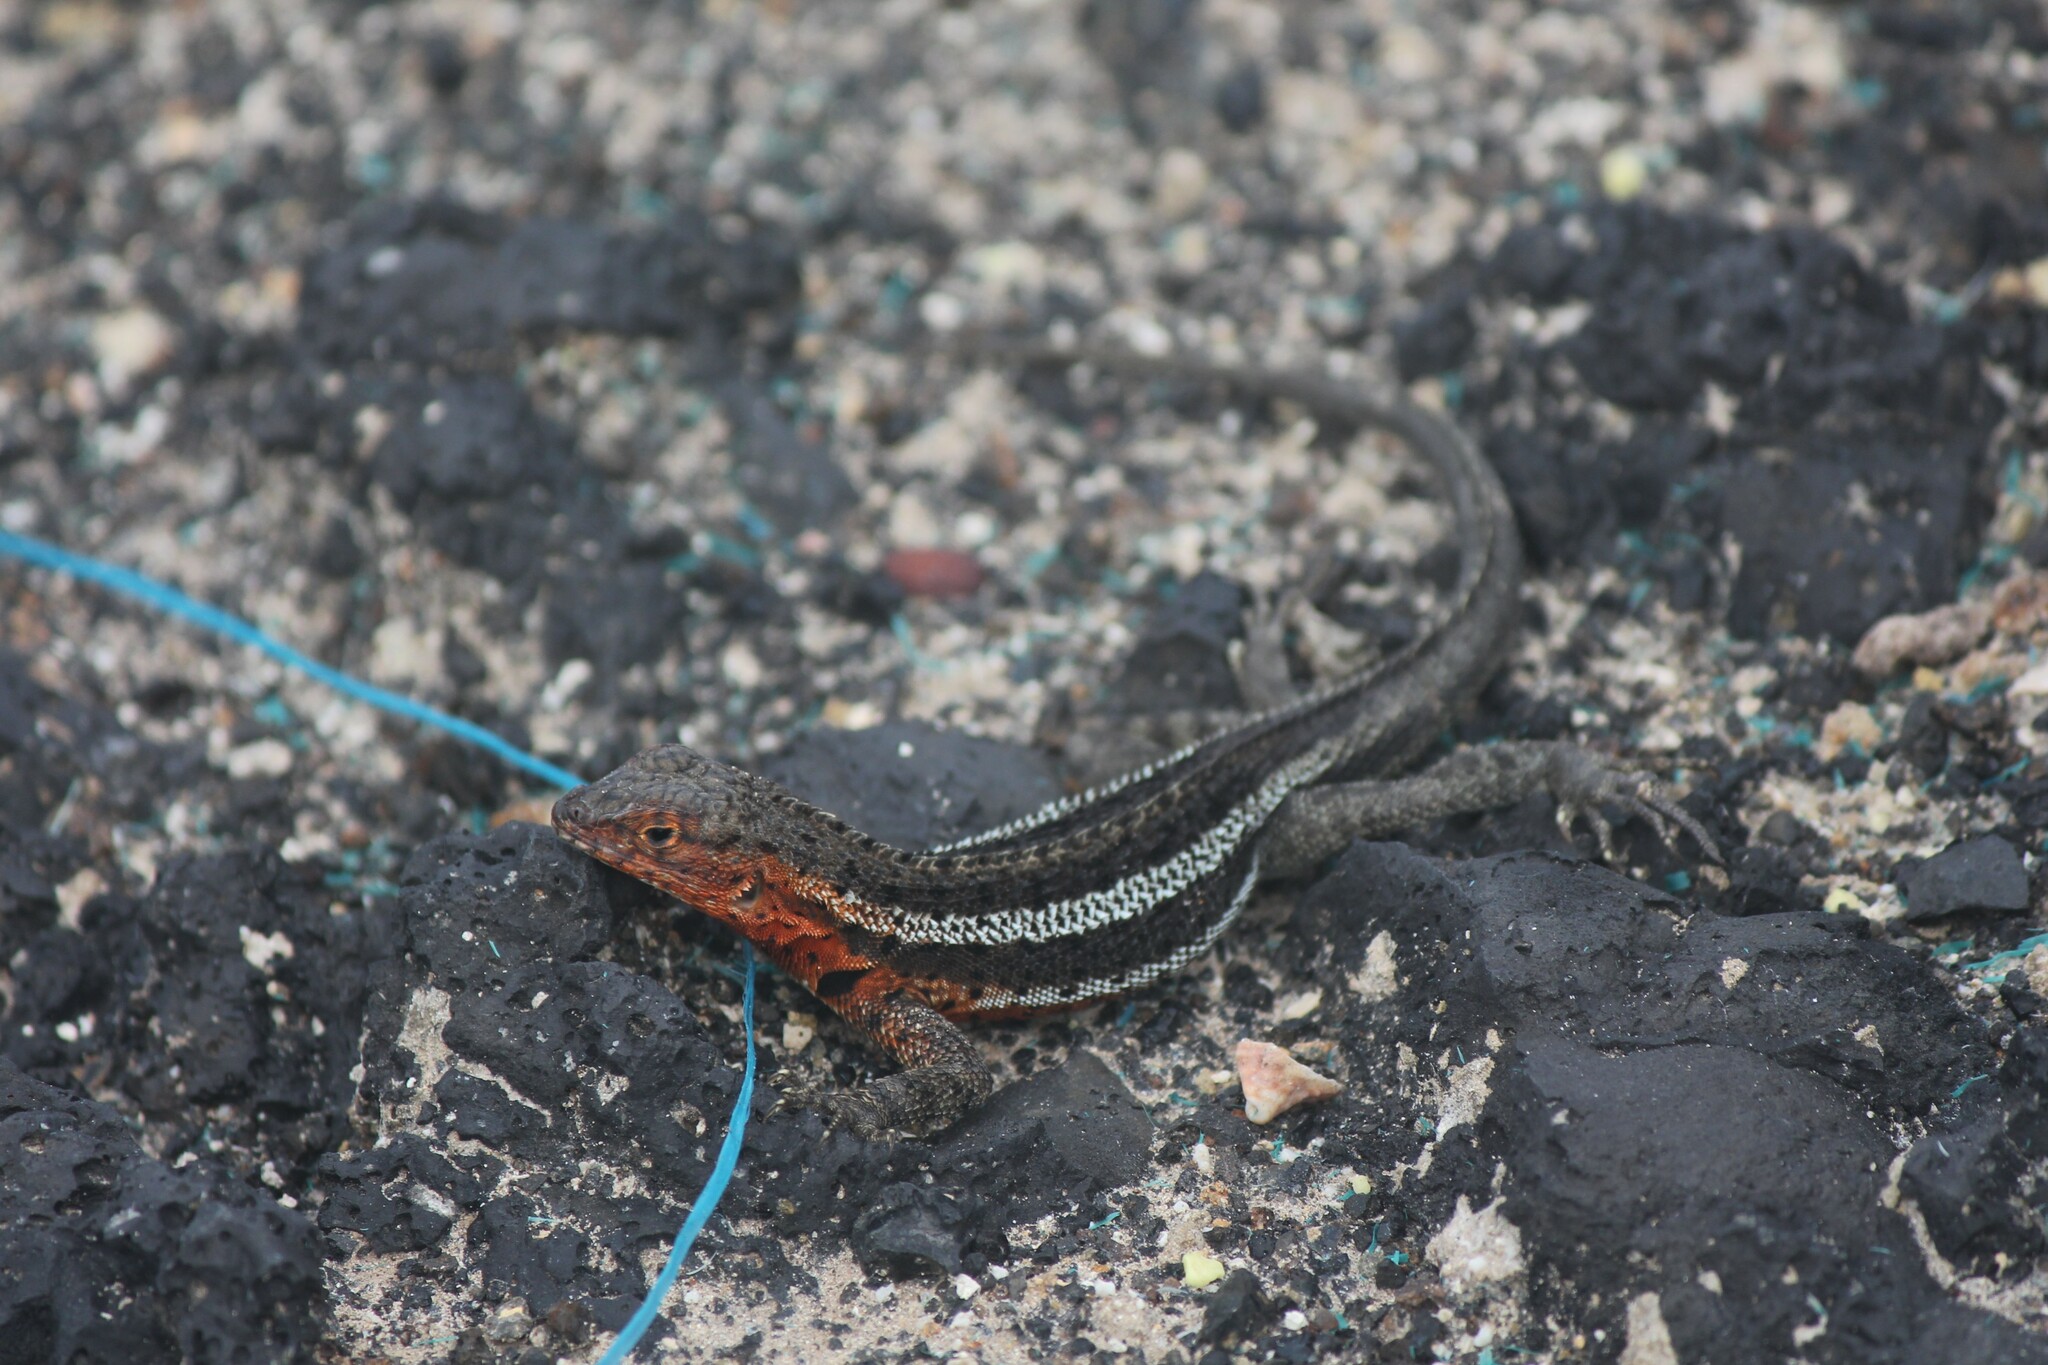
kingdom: Animalia
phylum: Chordata
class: Squamata
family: Tropiduridae
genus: Microlophus
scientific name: Microlophus albemarlensis
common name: Galapagos lava lizard
